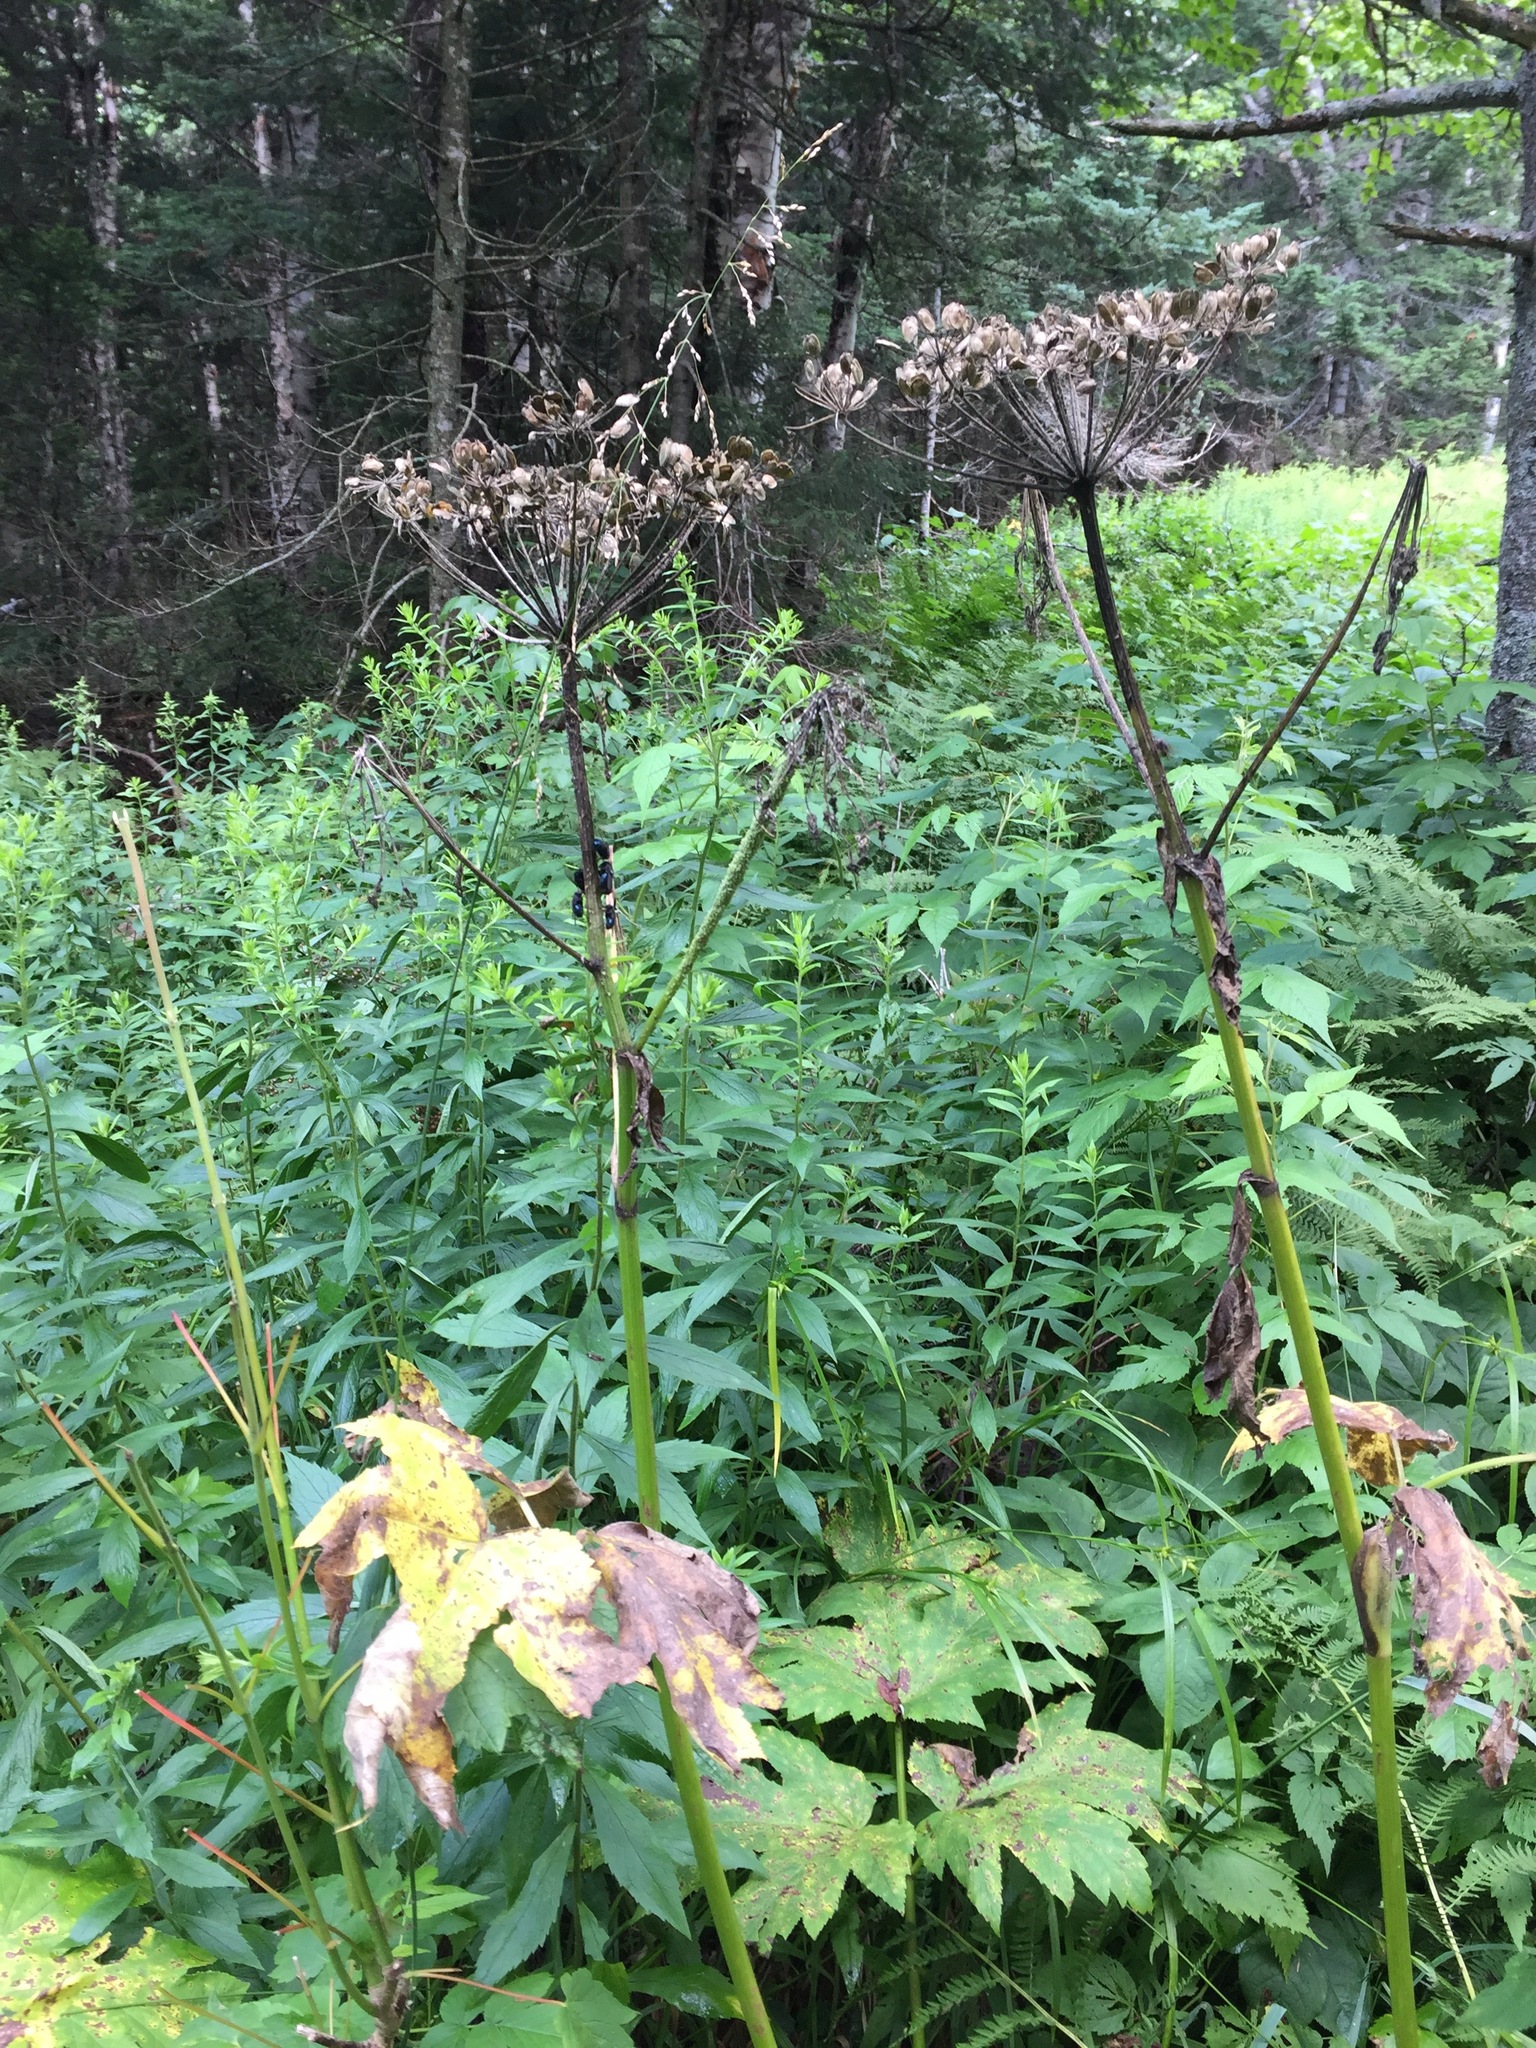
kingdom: Plantae
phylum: Tracheophyta
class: Magnoliopsida
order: Apiales
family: Apiaceae
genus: Heracleum
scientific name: Heracleum maximum
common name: American cow parsnip
